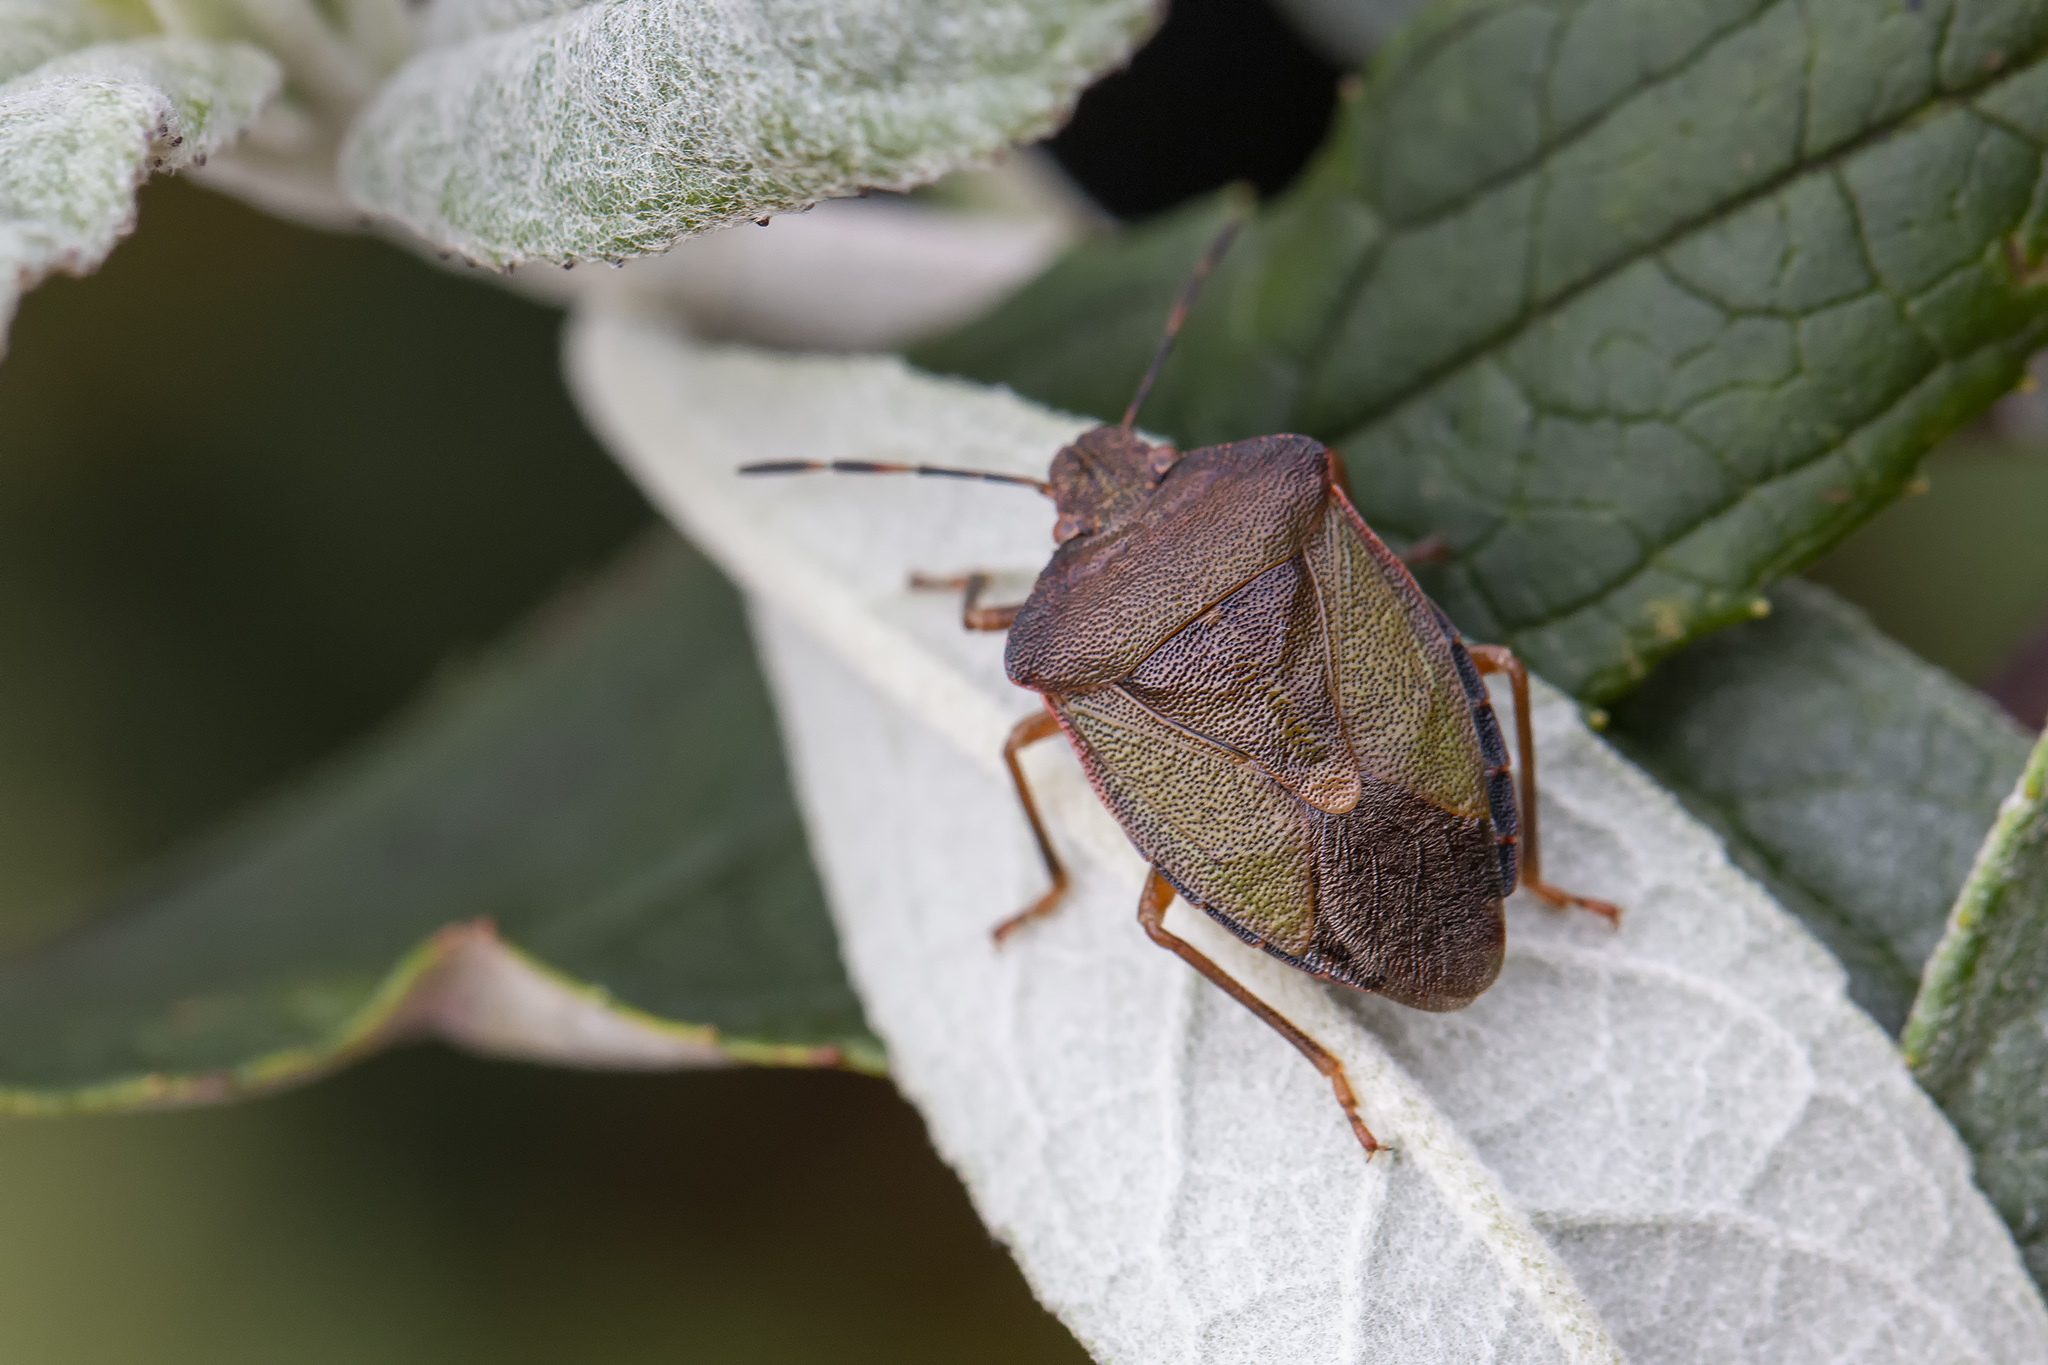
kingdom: Animalia
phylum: Arthropoda
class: Insecta
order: Hemiptera
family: Pentatomidae
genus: Palomena
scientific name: Palomena prasina
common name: Green shieldbug
